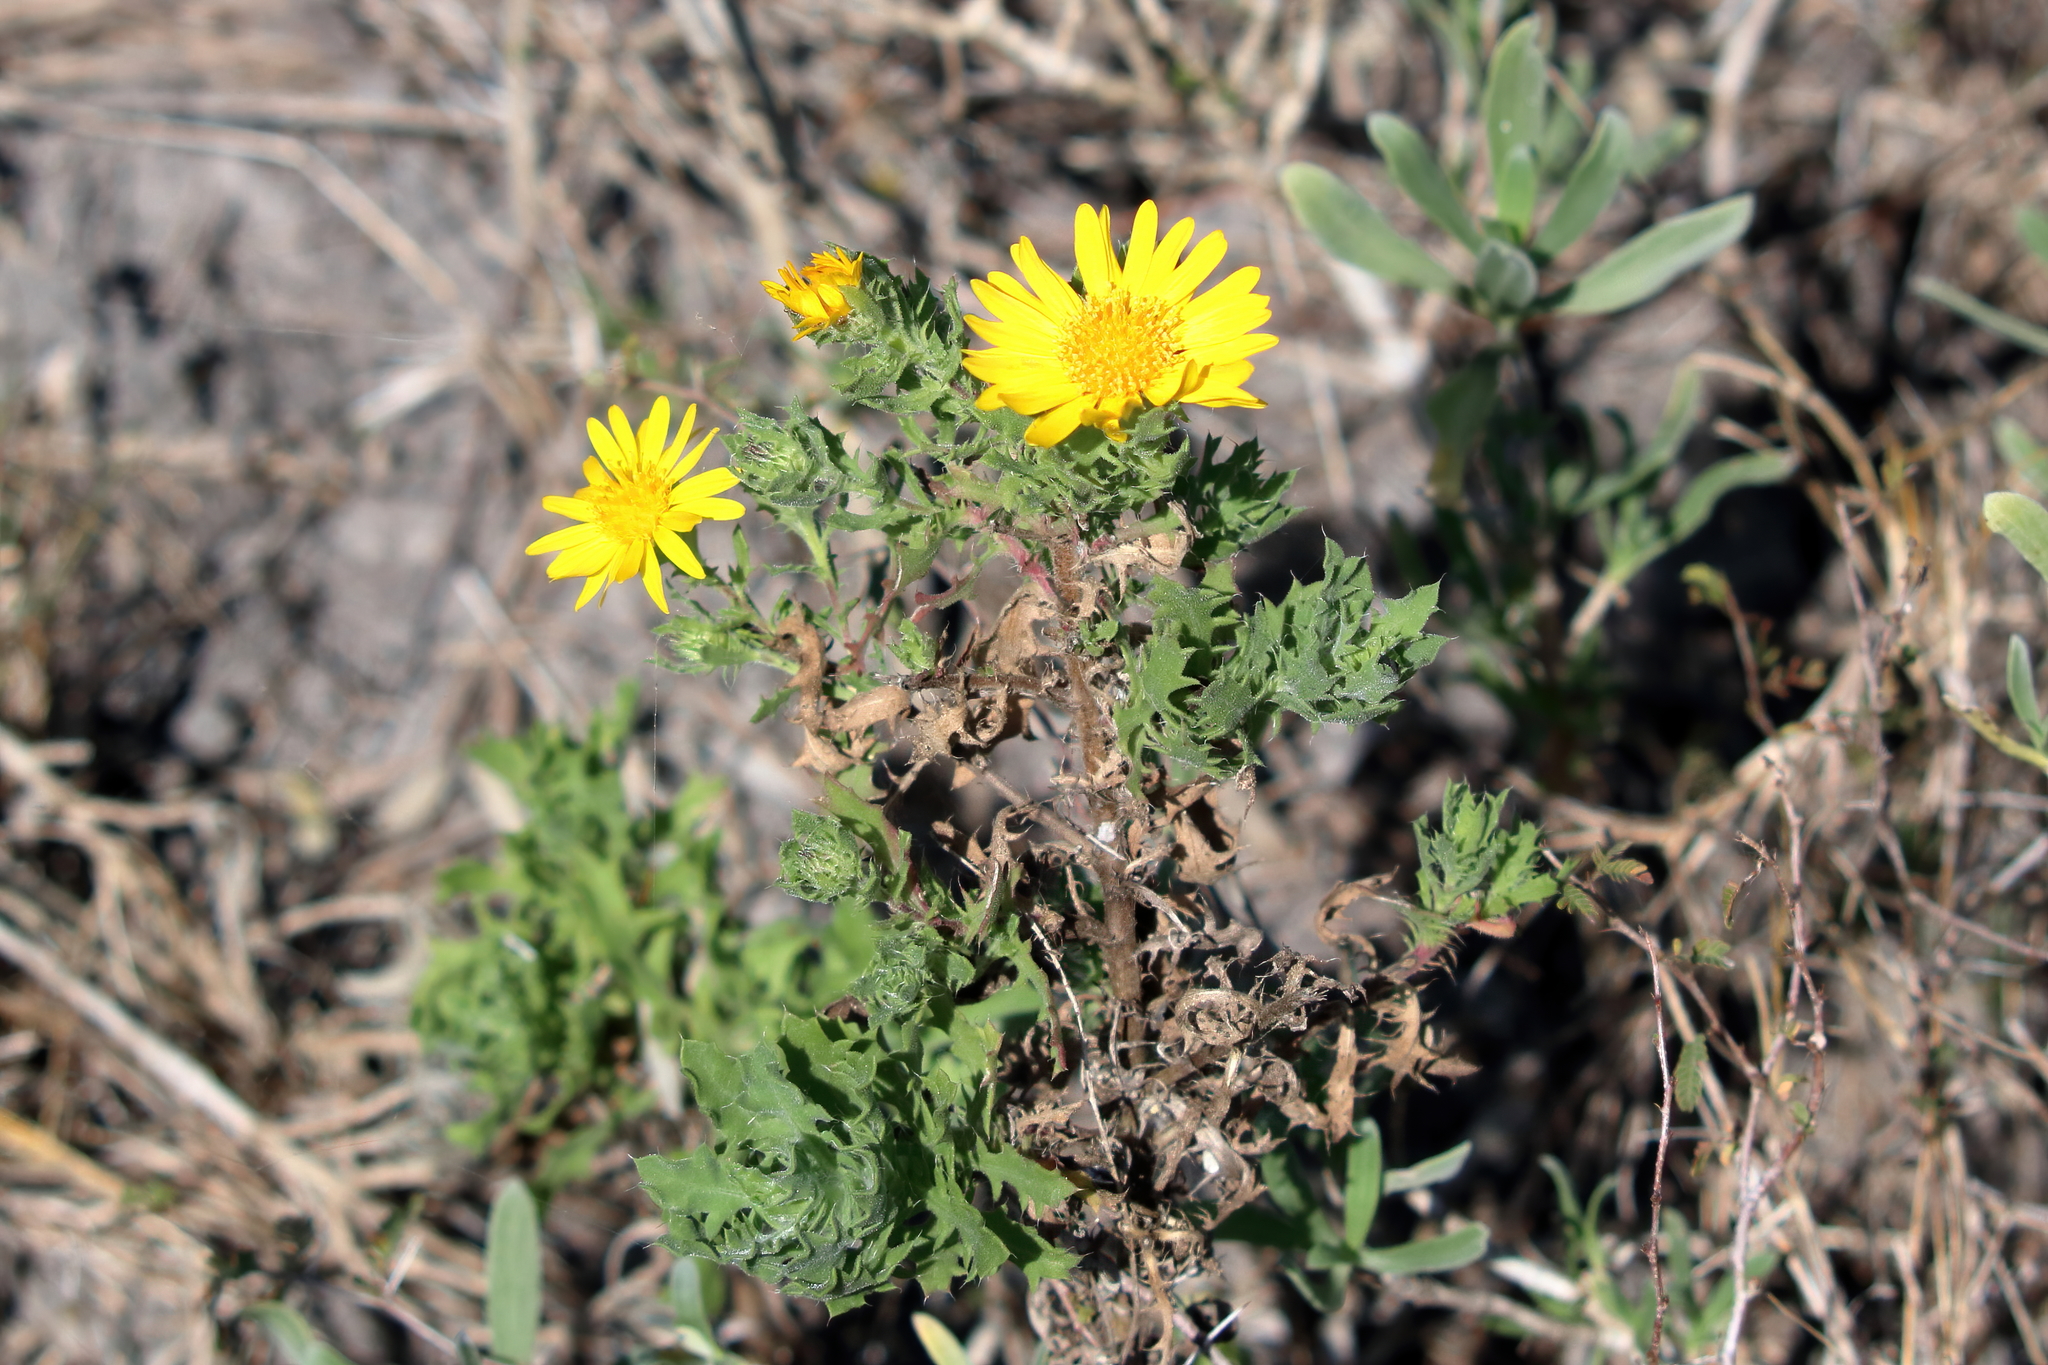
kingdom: Plantae
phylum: Tracheophyta
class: Magnoliopsida
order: Asterales
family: Asteraceae
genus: Rayjacksonia
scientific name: Rayjacksonia phyllocephala
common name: Gulf coast camphor daisy
